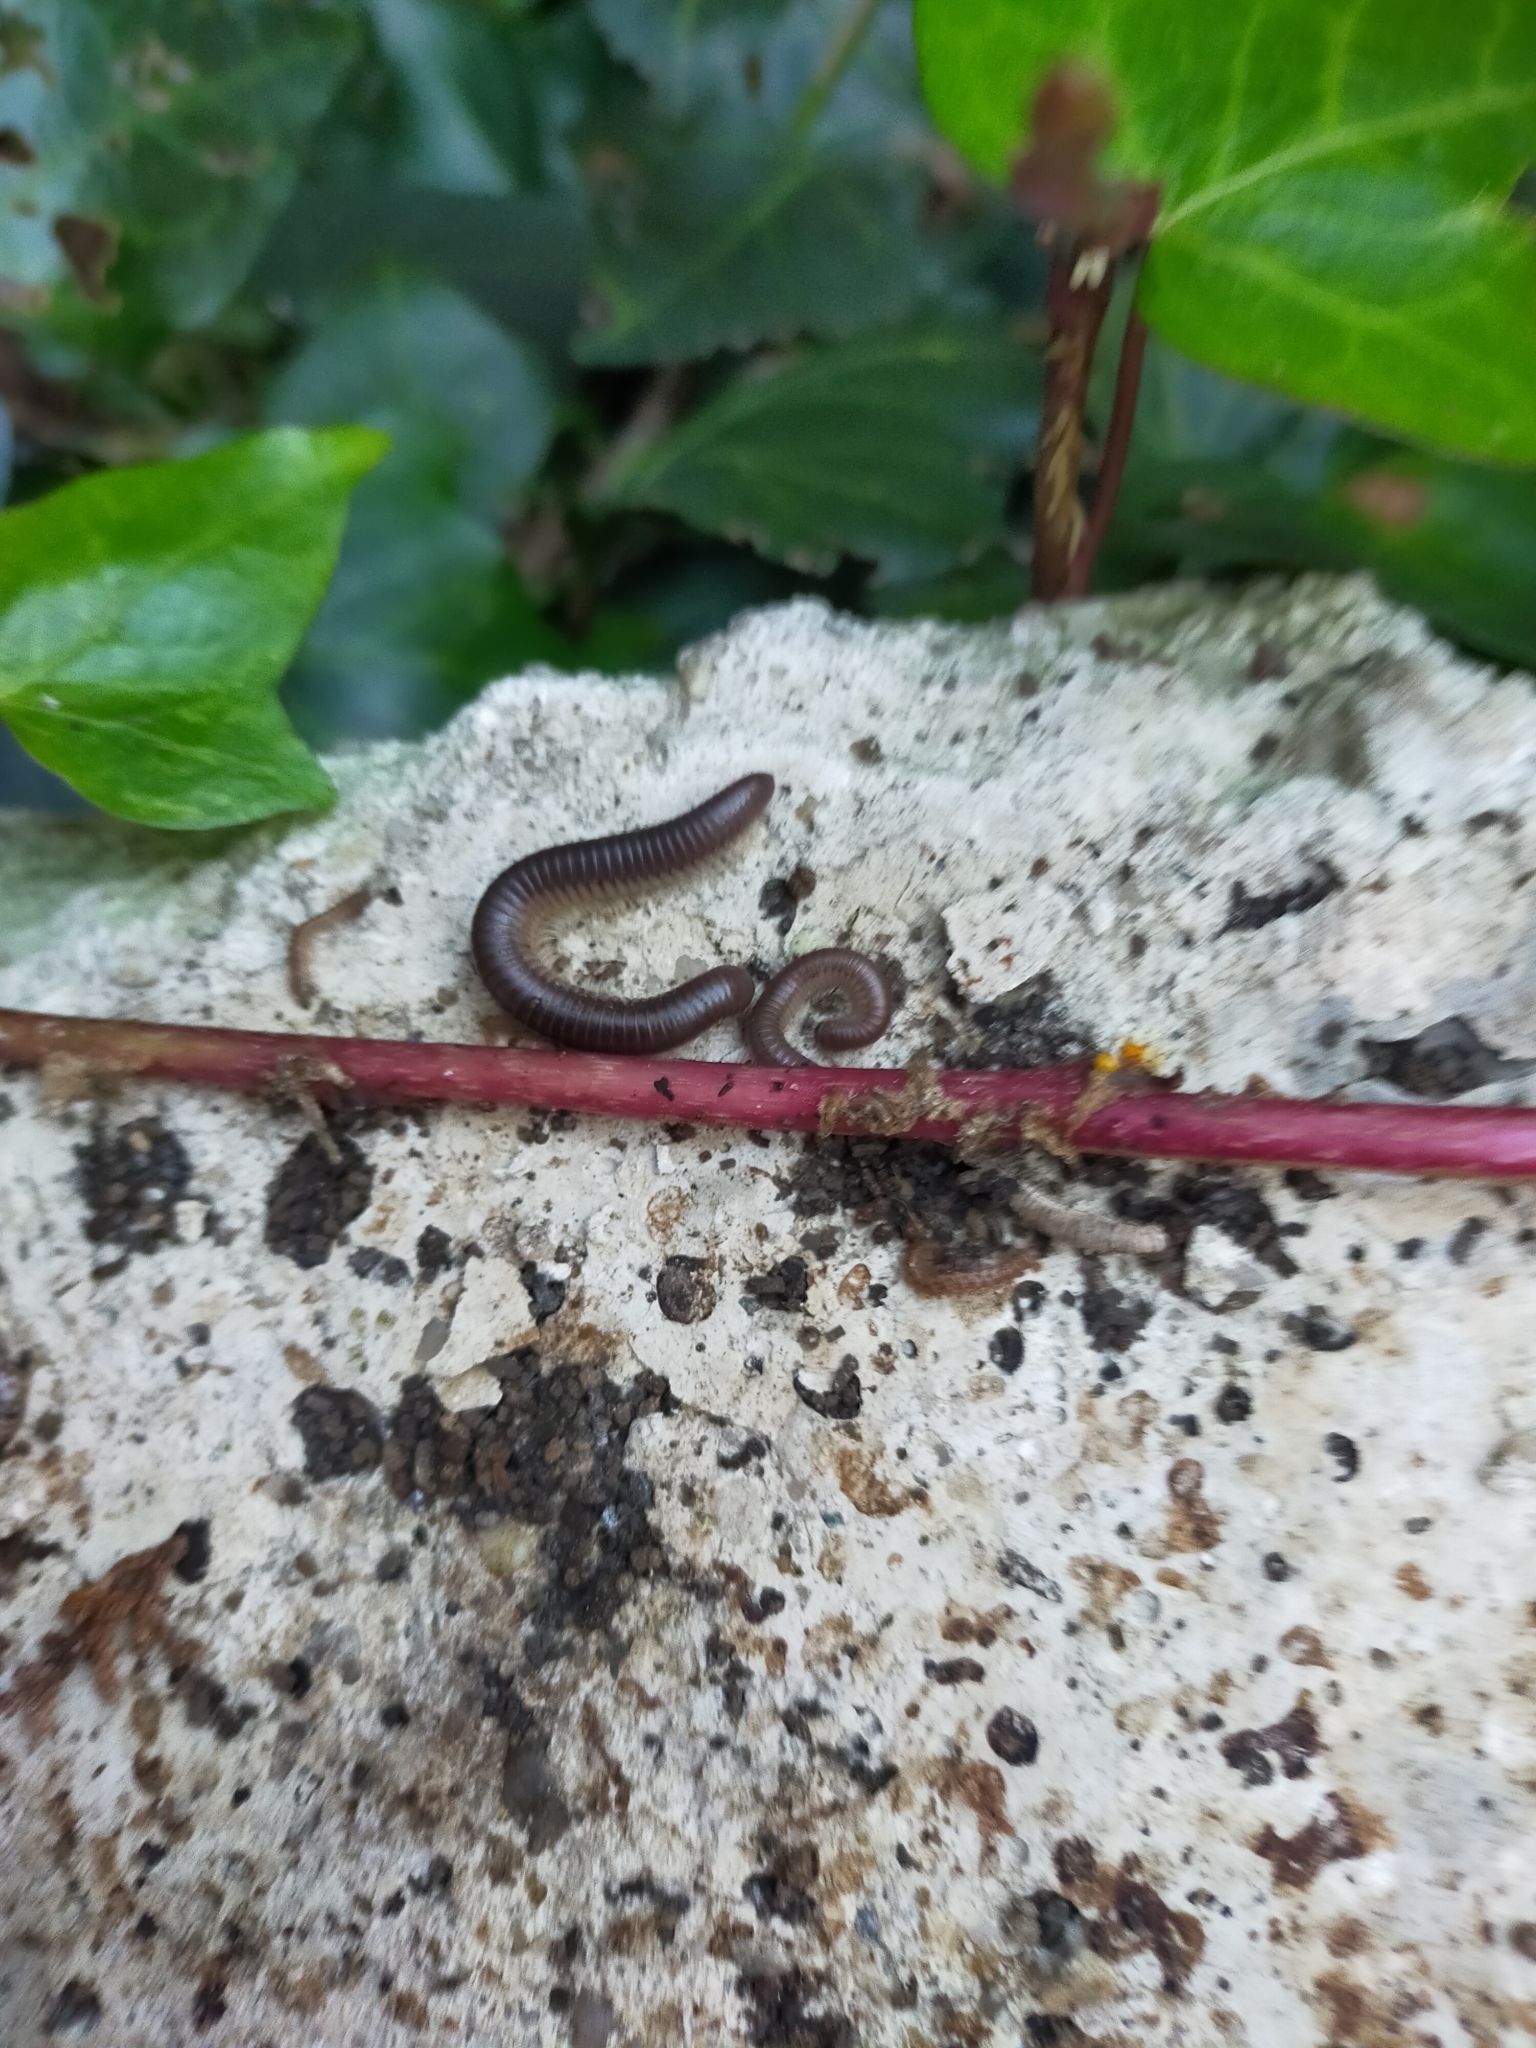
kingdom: Animalia
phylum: Arthropoda
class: Diplopoda
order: Julida
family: Julidae
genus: Pachyiulus
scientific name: Pachyiulus flavipes
